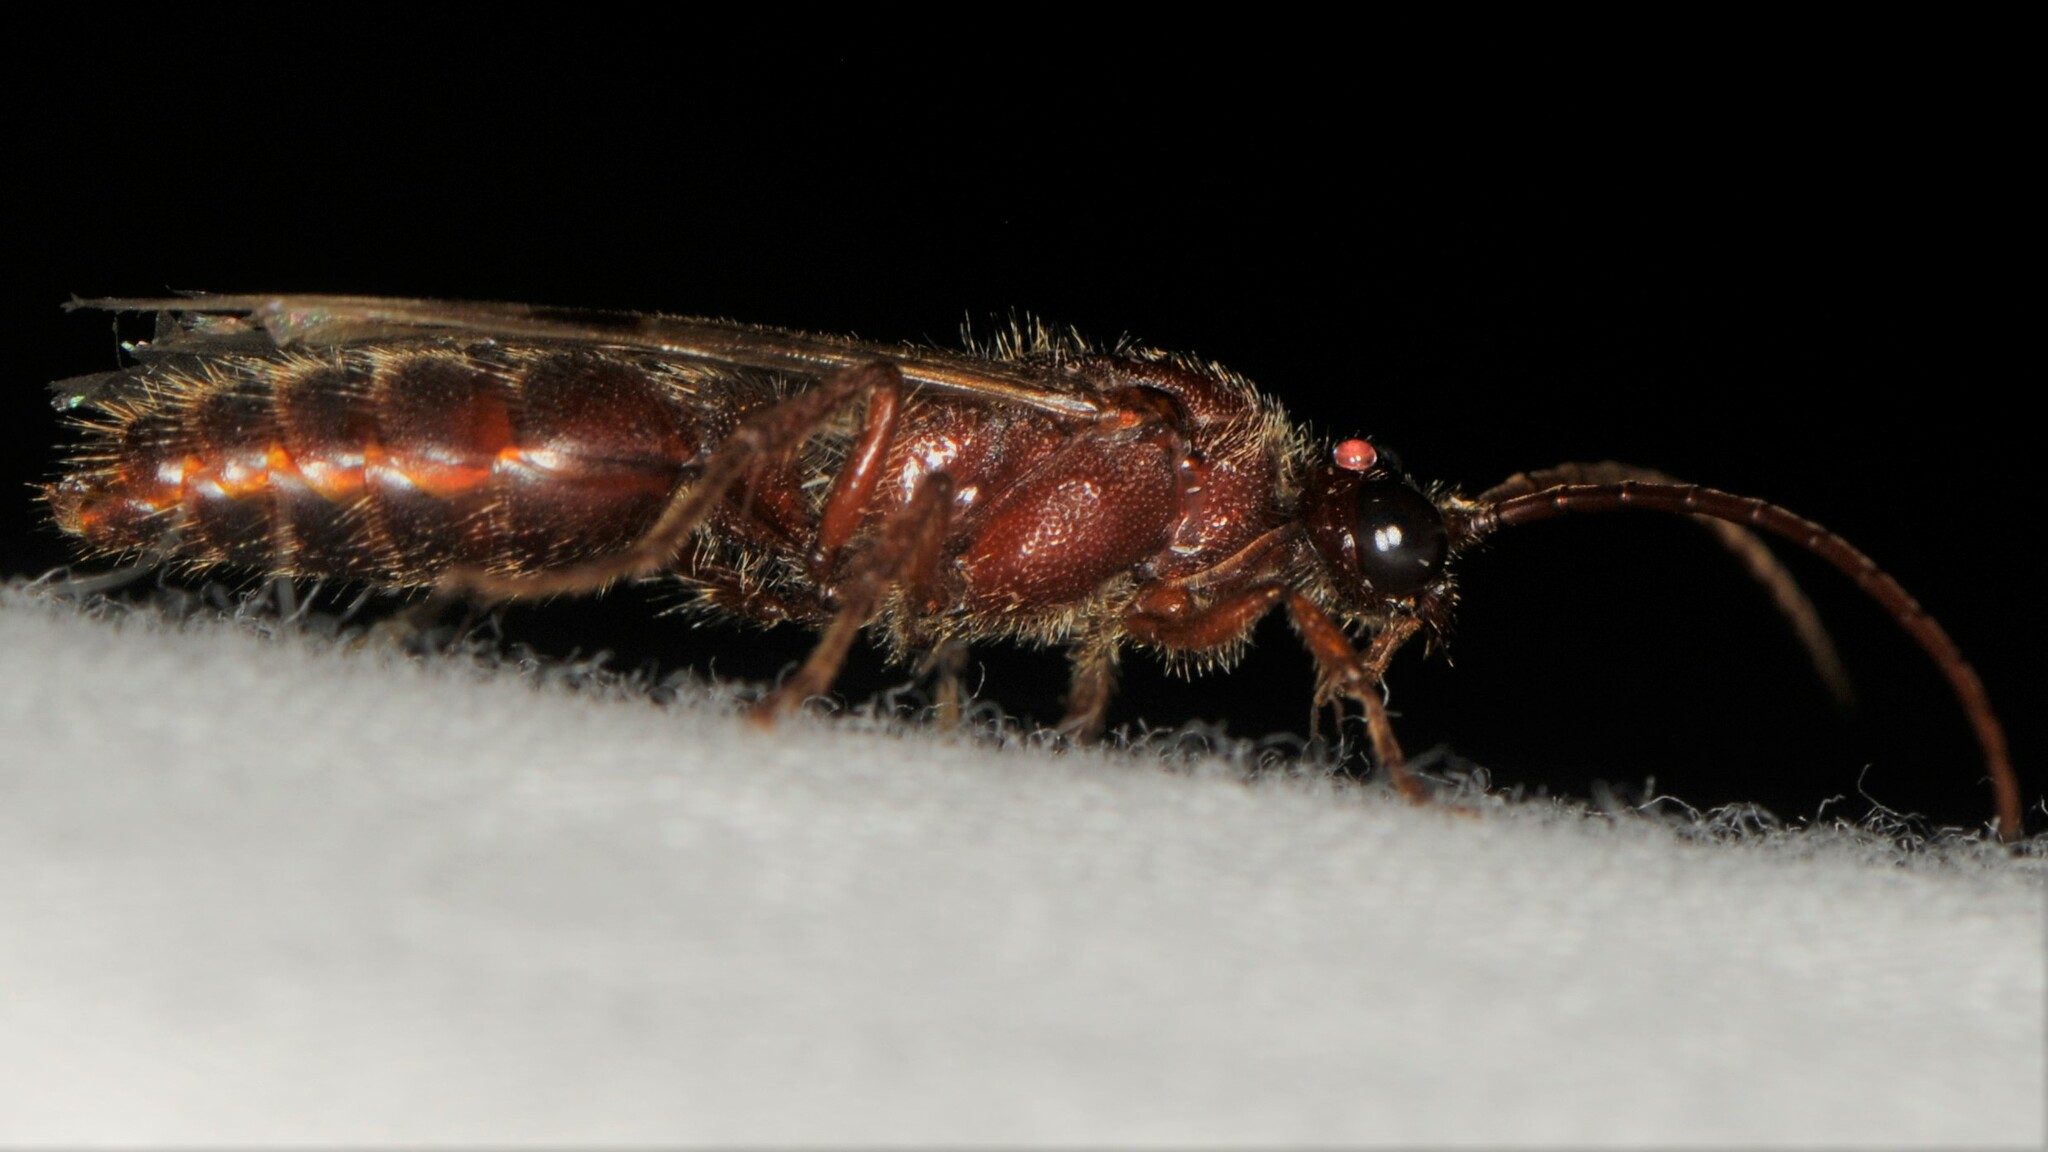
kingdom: Animalia
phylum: Arthropoda
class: Insecta
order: Hymenoptera
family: Tiphiidae
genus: Colocistis
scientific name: Colocistis castanea
